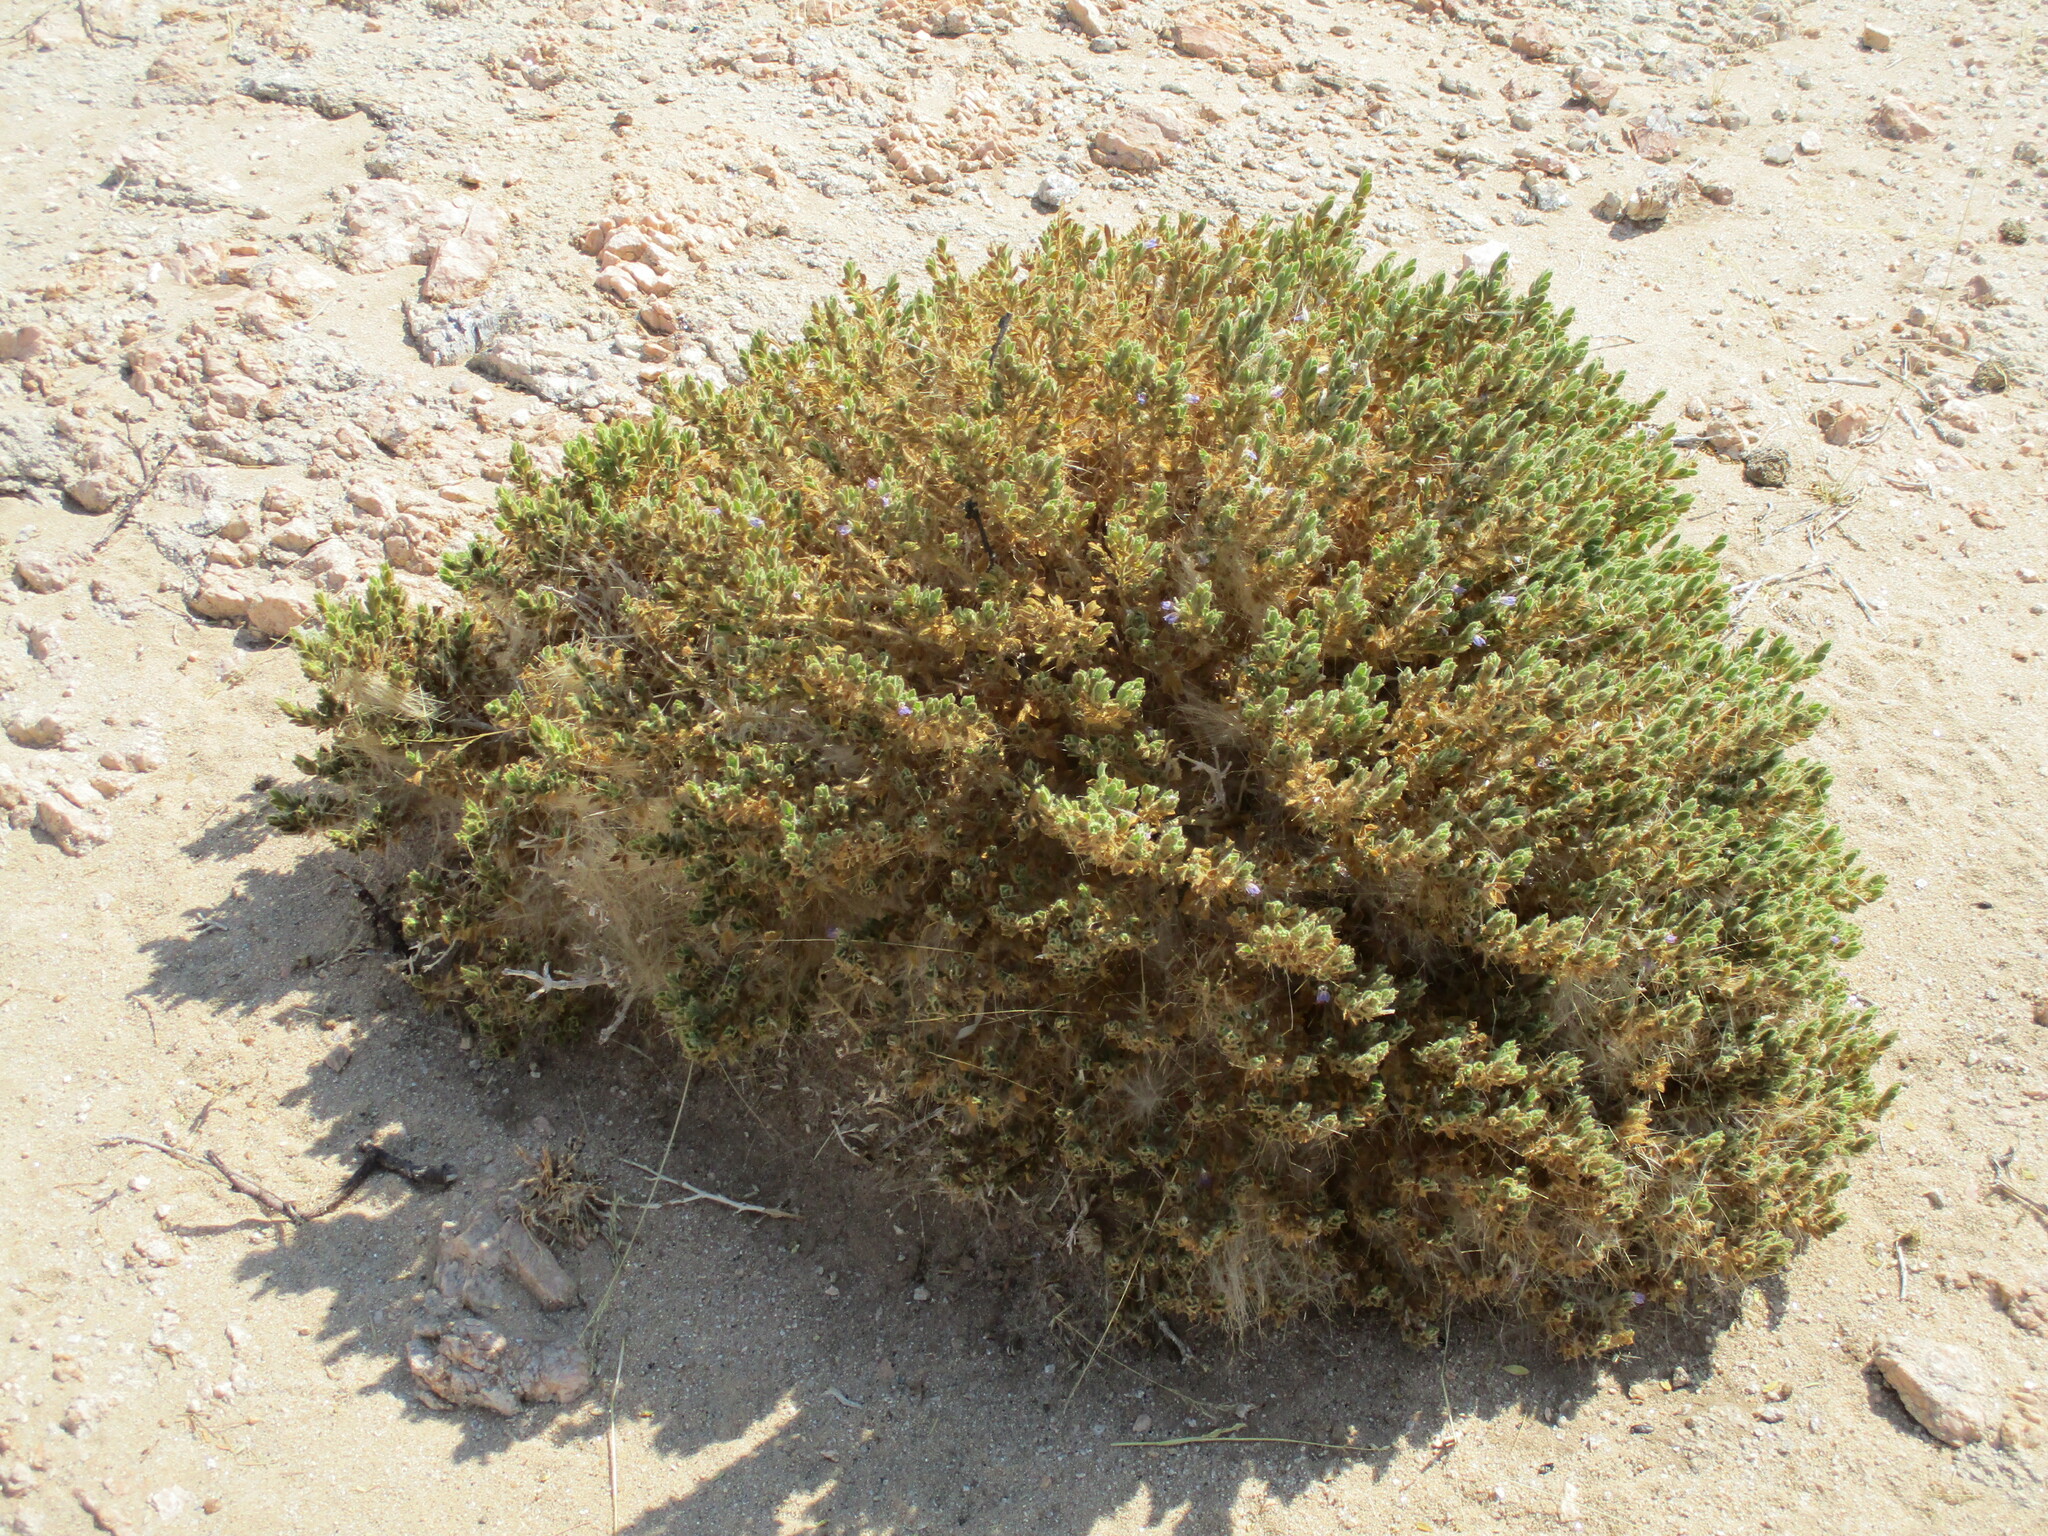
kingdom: Plantae
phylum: Tracheophyta
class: Magnoliopsida
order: Lamiales
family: Acanthaceae
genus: Pogonospermum
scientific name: Pogonospermum
